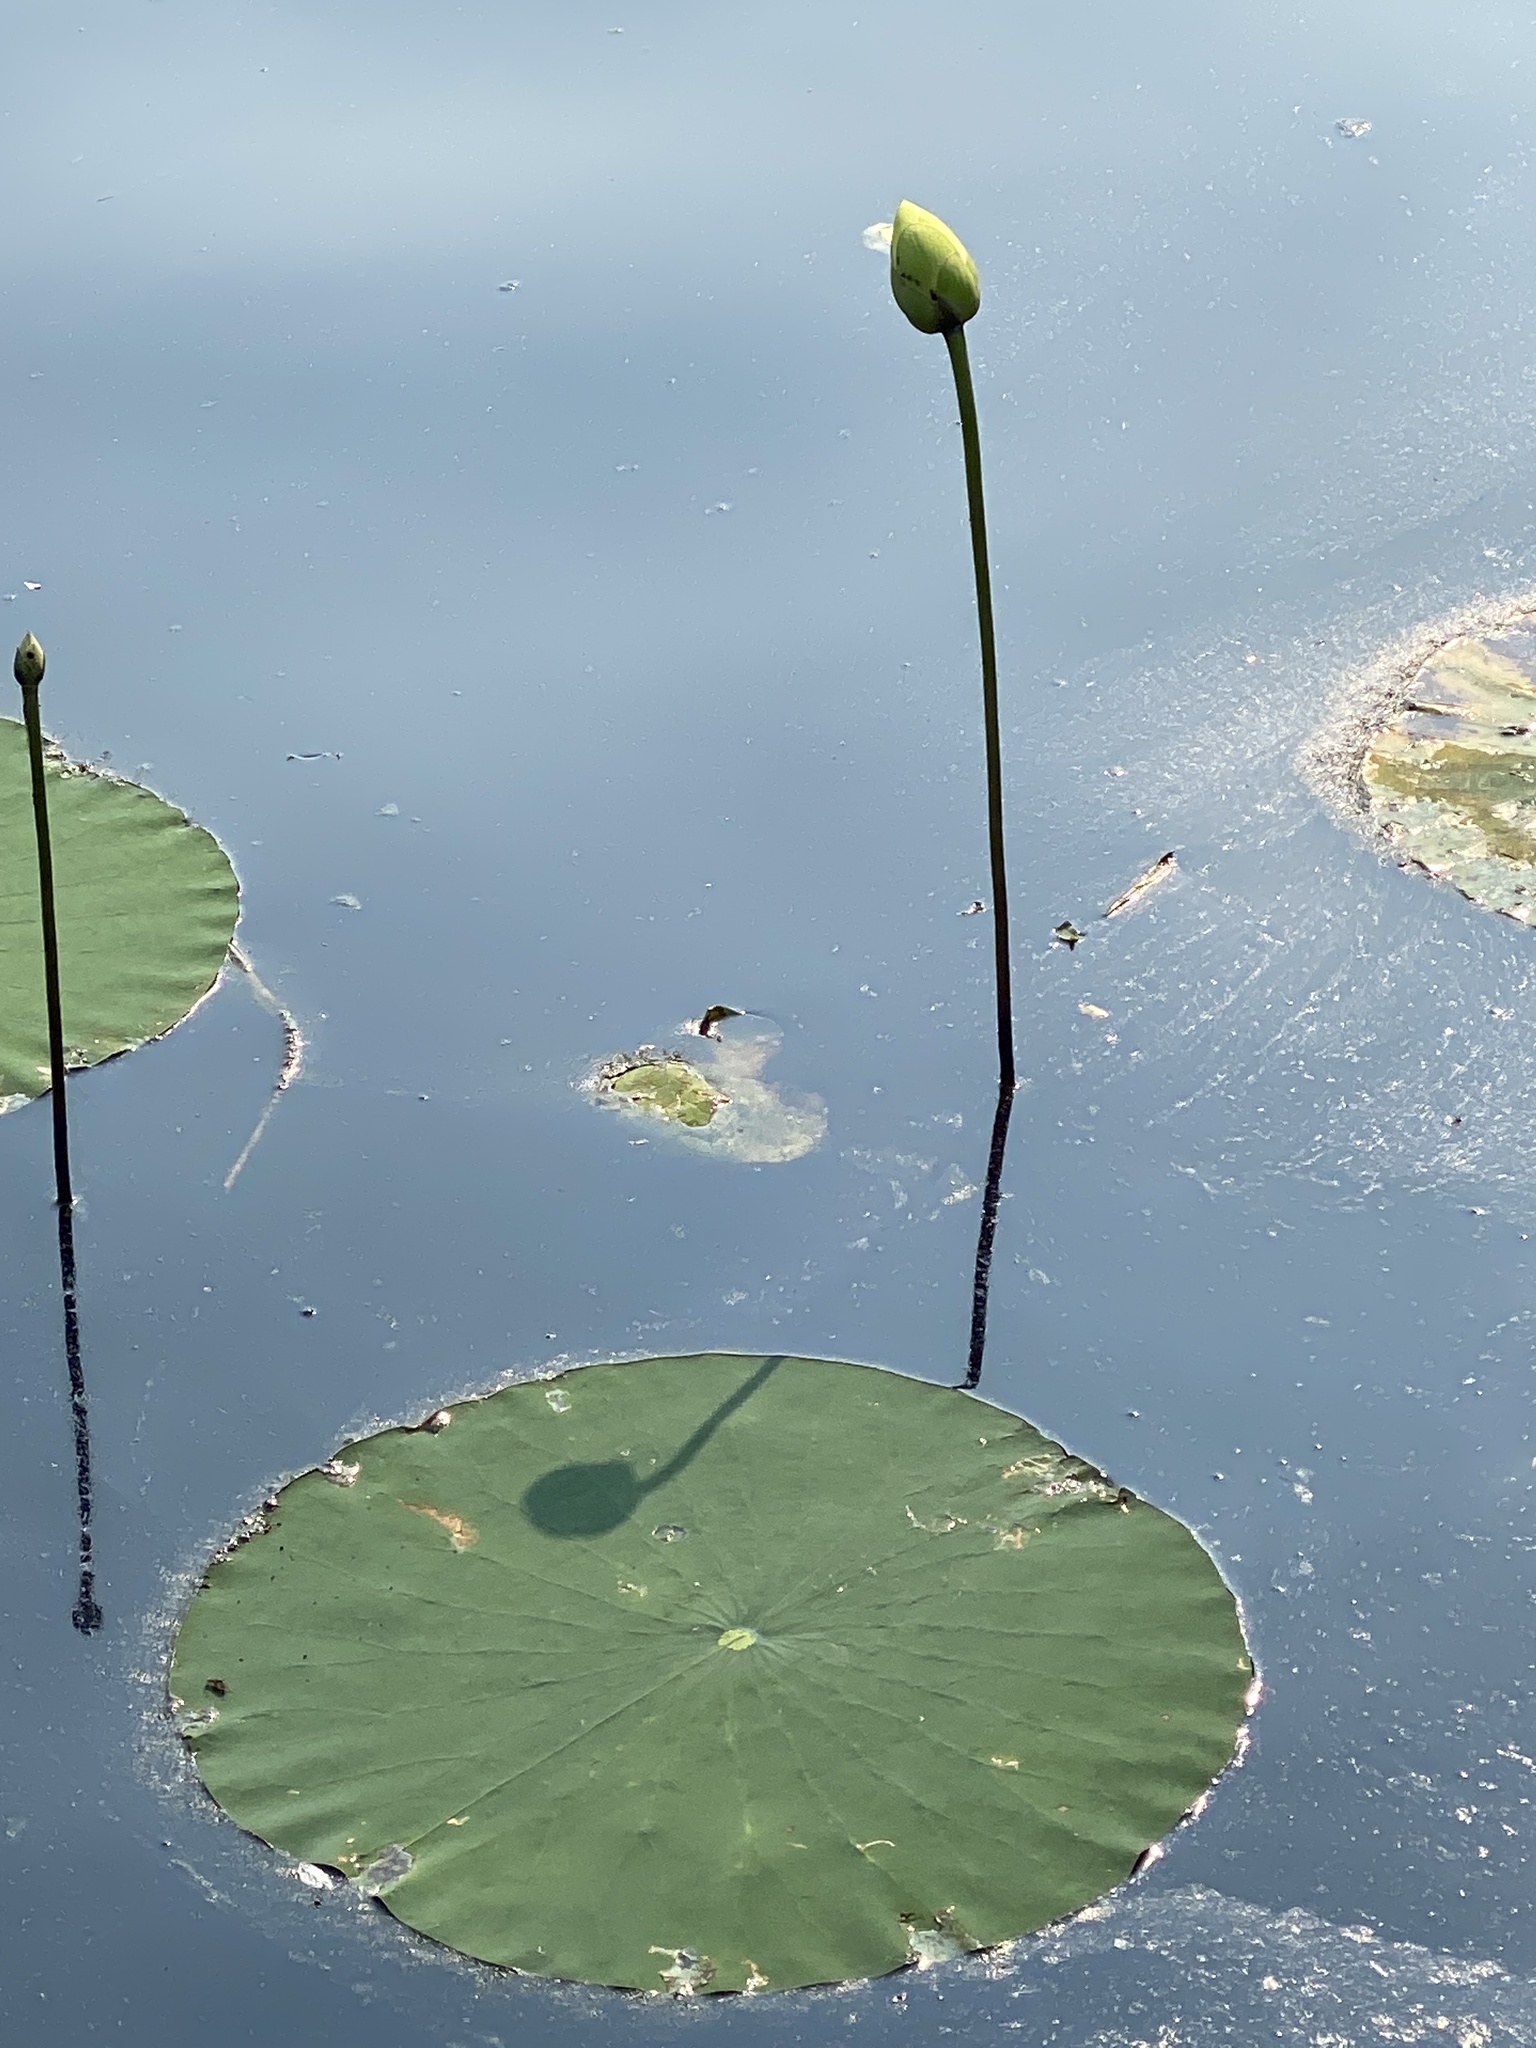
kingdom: Plantae
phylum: Tracheophyta
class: Magnoliopsida
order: Proteales
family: Nelumbonaceae
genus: Nelumbo
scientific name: Nelumbo lutea
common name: American lotus
